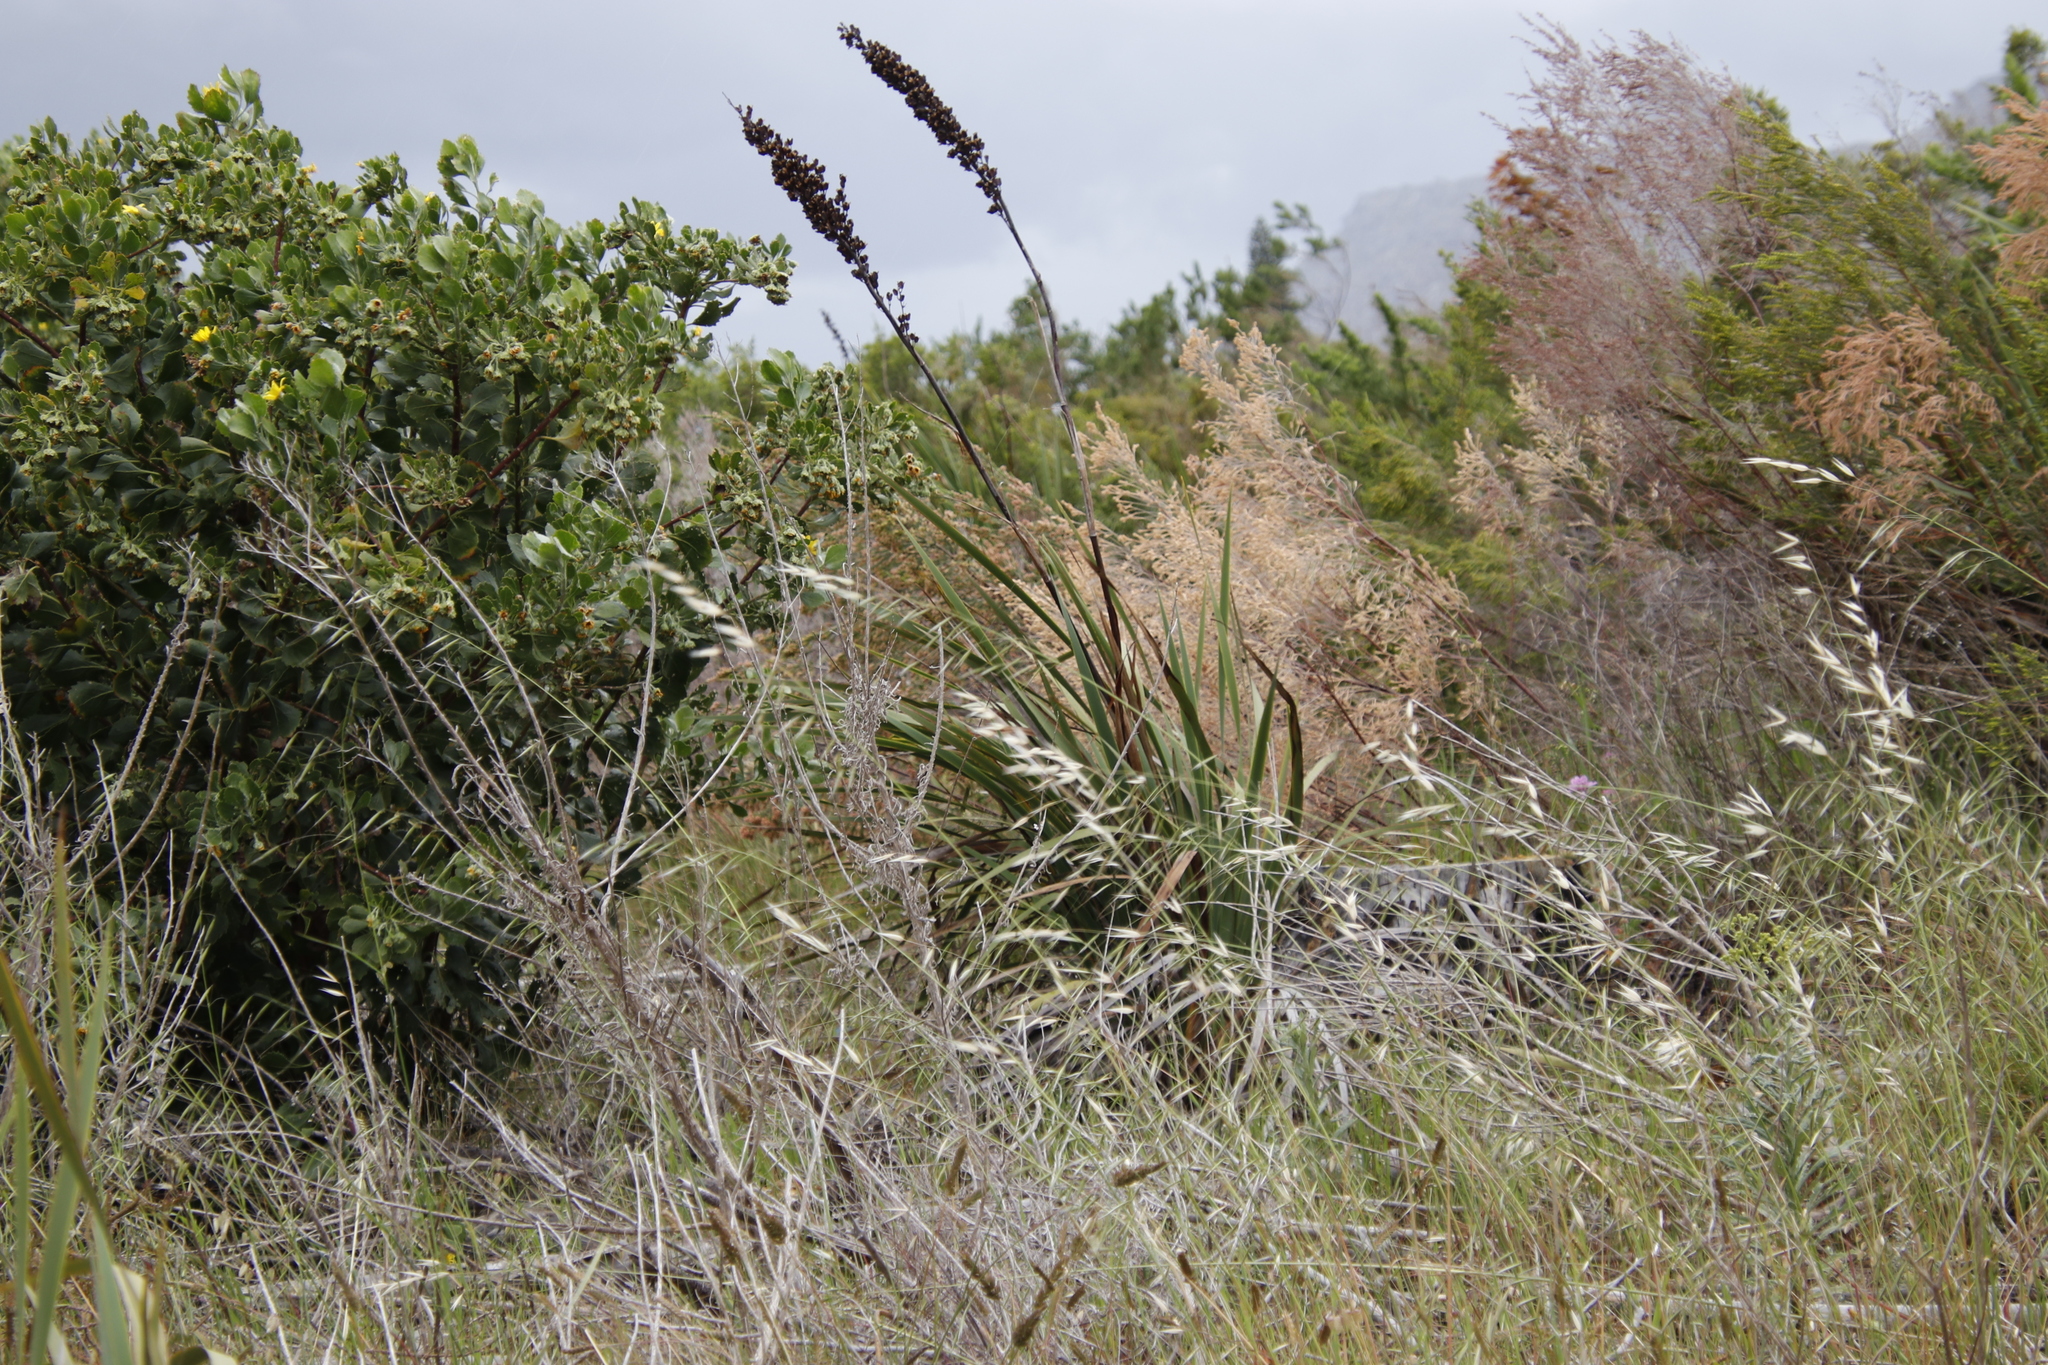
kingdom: Plantae
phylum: Tracheophyta
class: Liliopsida
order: Asparagales
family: Iridaceae
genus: Aristea
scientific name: Aristea capitata
